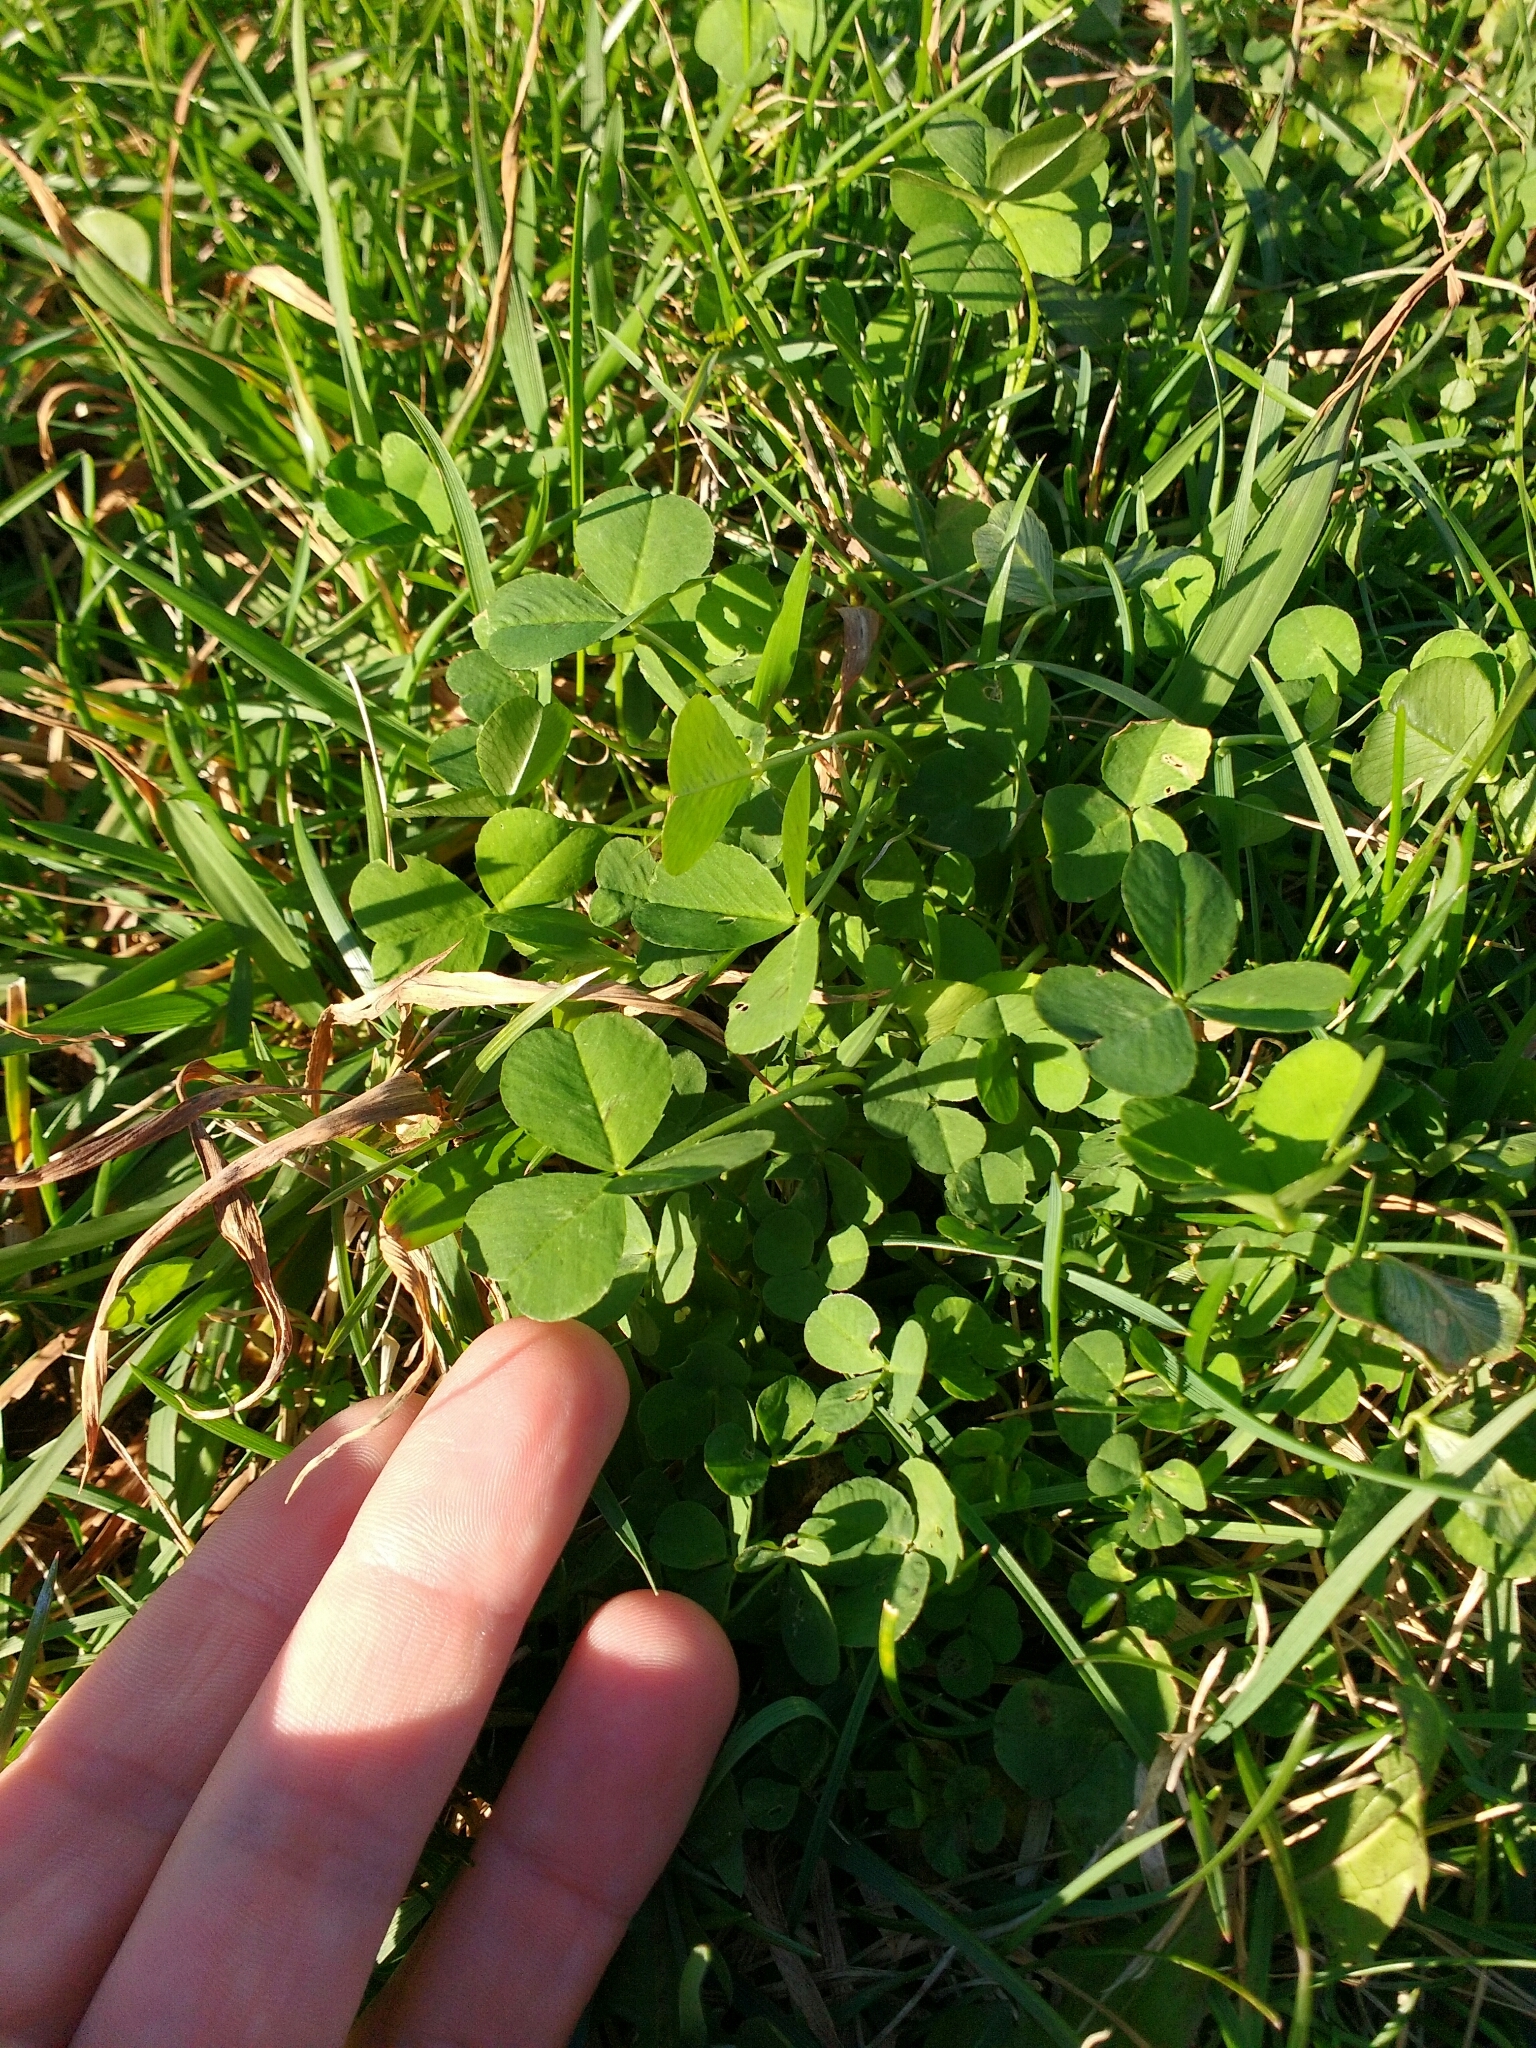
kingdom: Plantae
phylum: Tracheophyta
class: Magnoliopsida
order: Fabales
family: Fabaceae
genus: Trifolium
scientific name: Trifolium repens
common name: White clover
